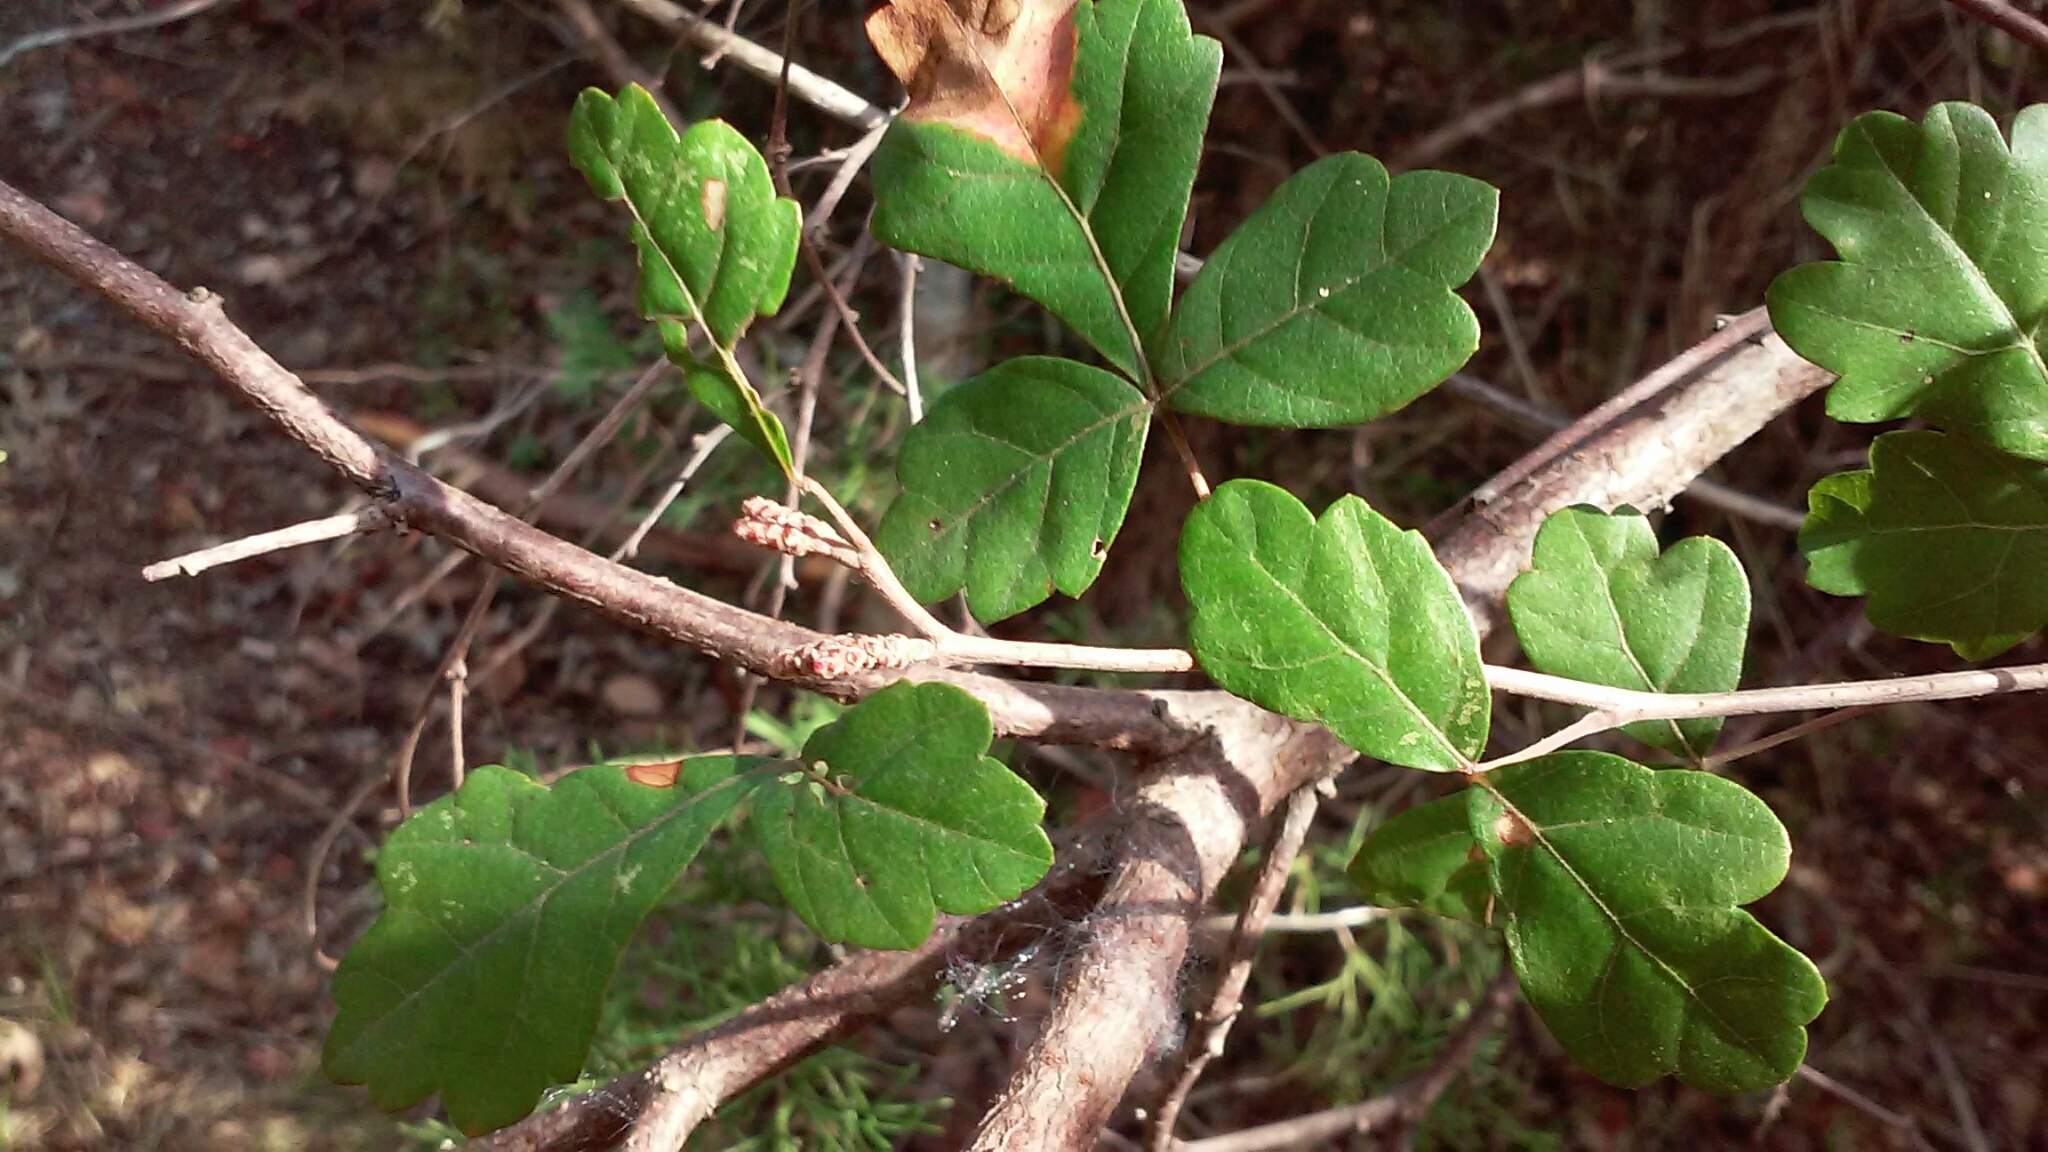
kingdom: Plantae
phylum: Tracheophyta
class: Magnoliopsida
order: Sapindales
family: Anacardiaceae
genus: Rhus
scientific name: Rhus aromatica
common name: Aromatic sumac
